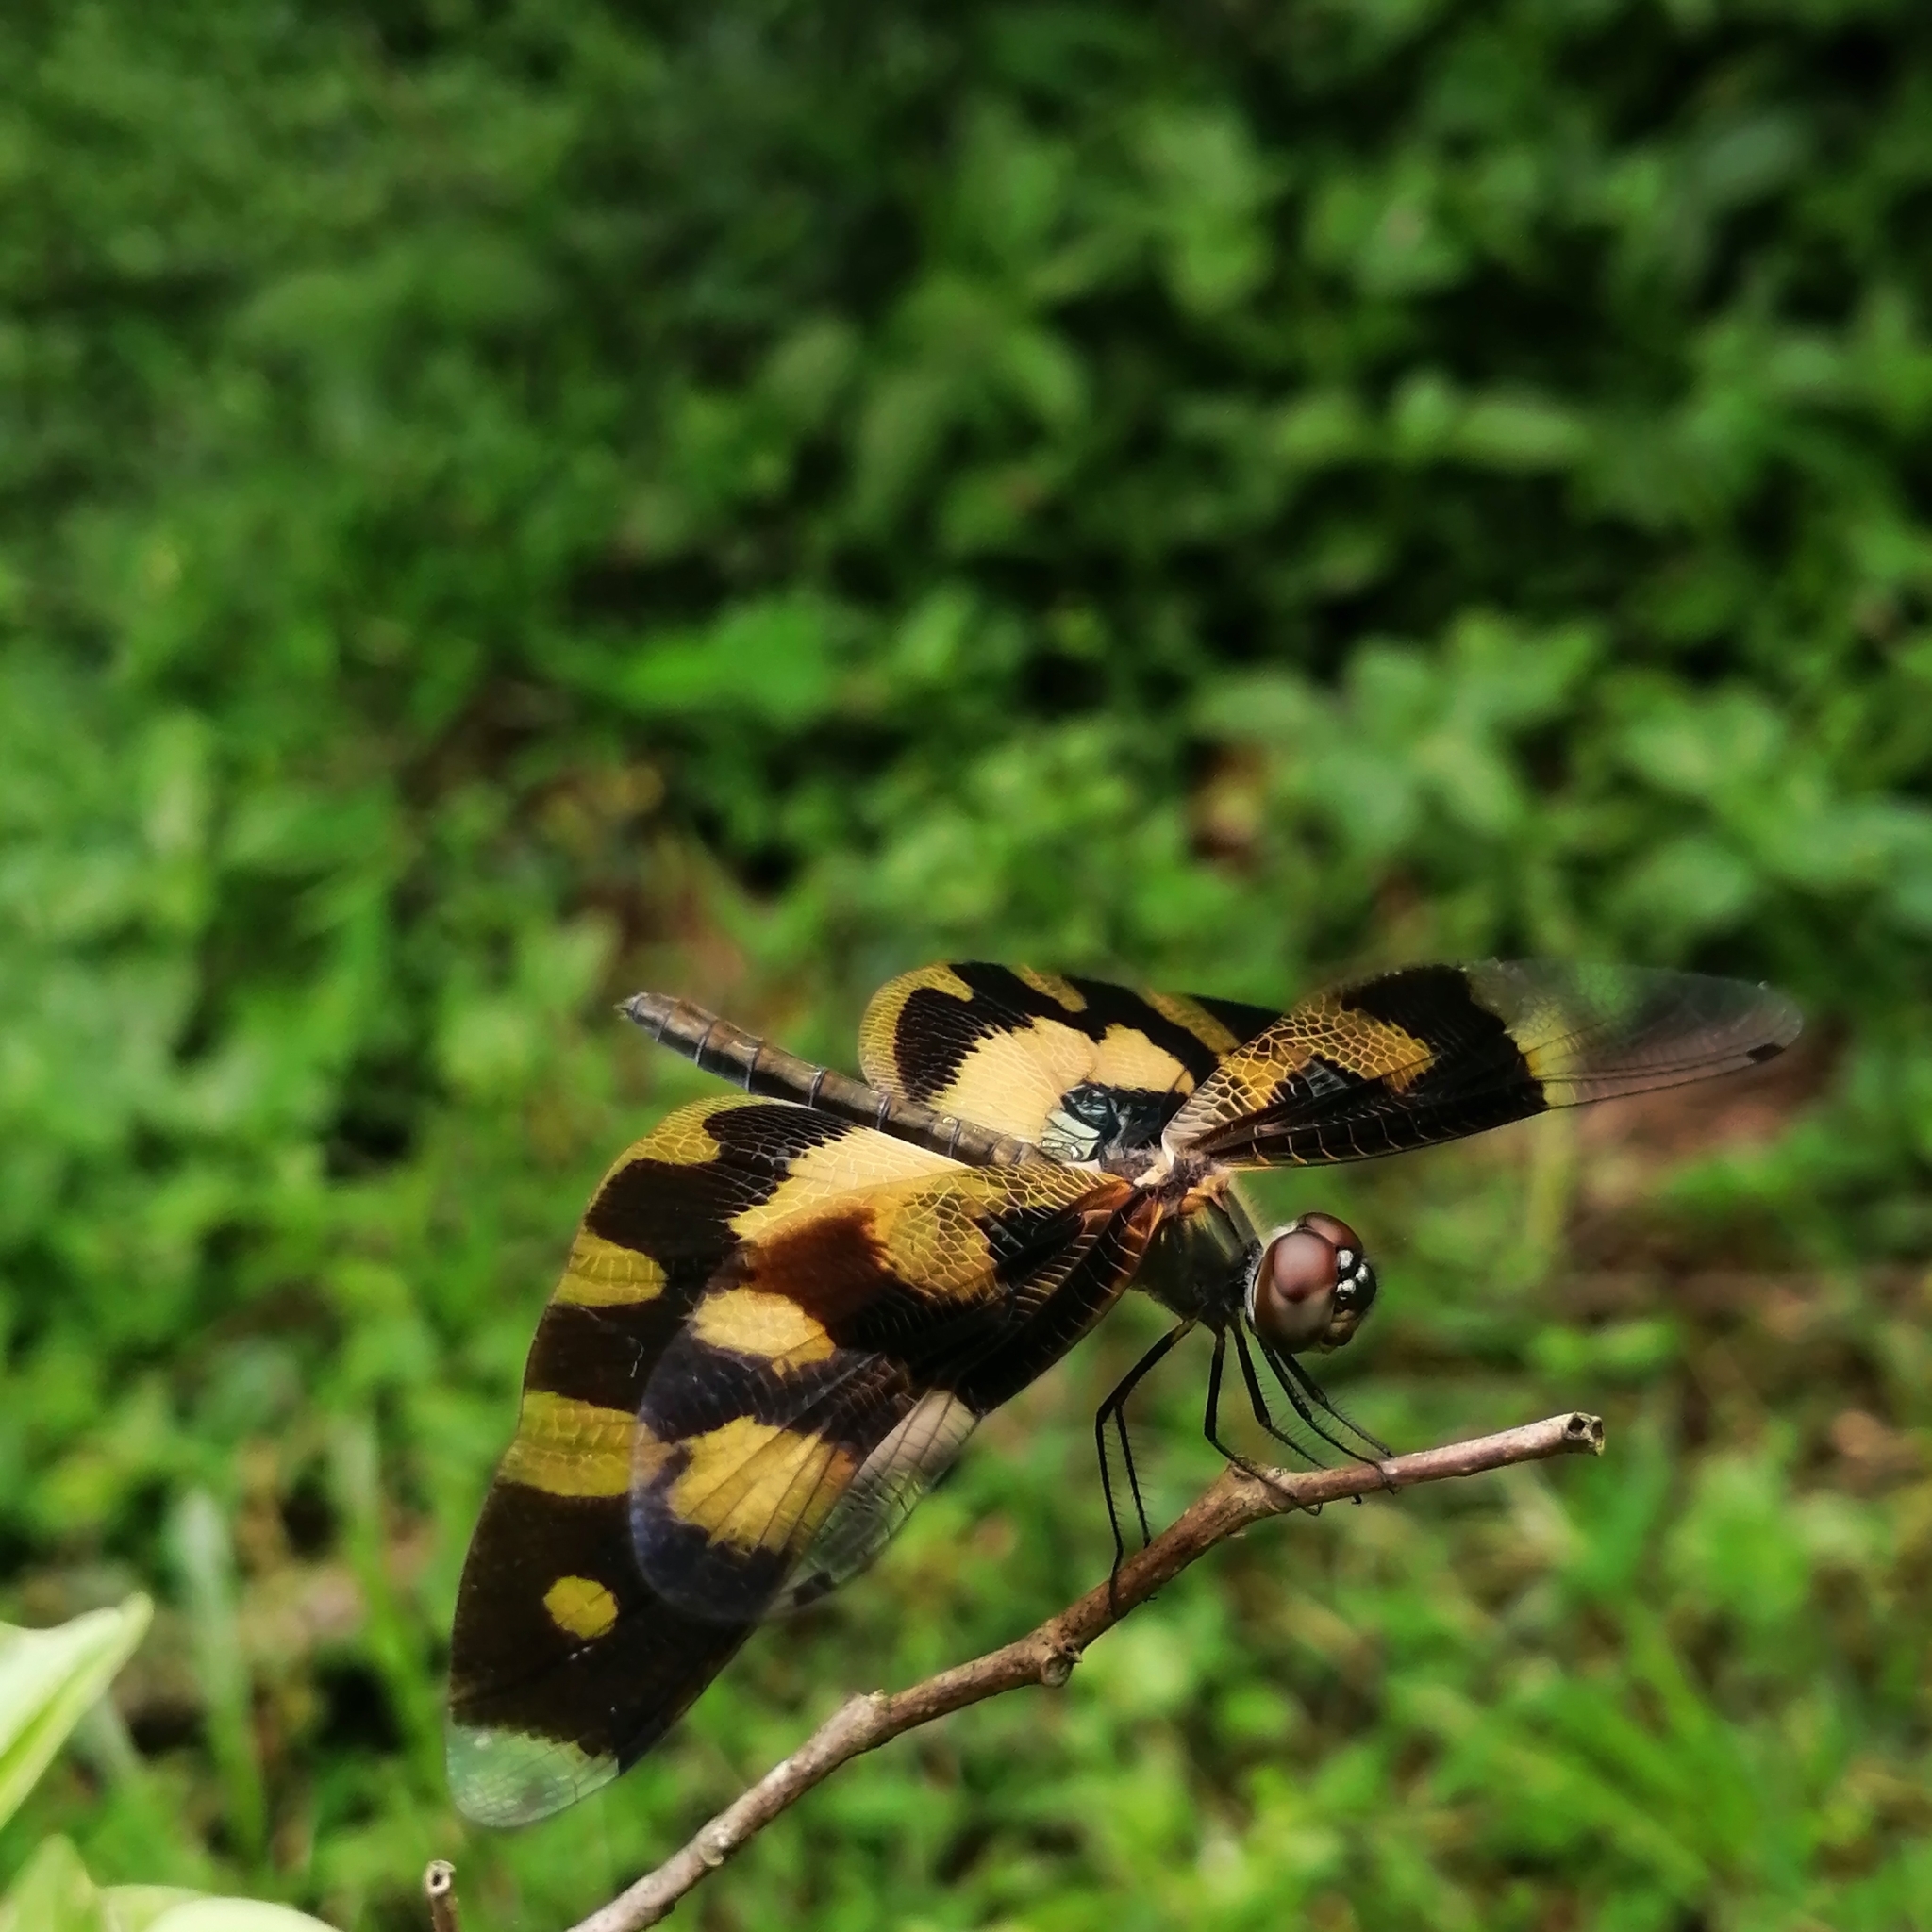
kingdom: Animalia
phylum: Arthropoda
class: Insecta
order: Odonata
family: Libellulidae
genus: Rhyothemis
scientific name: Rhyothemis variegata
